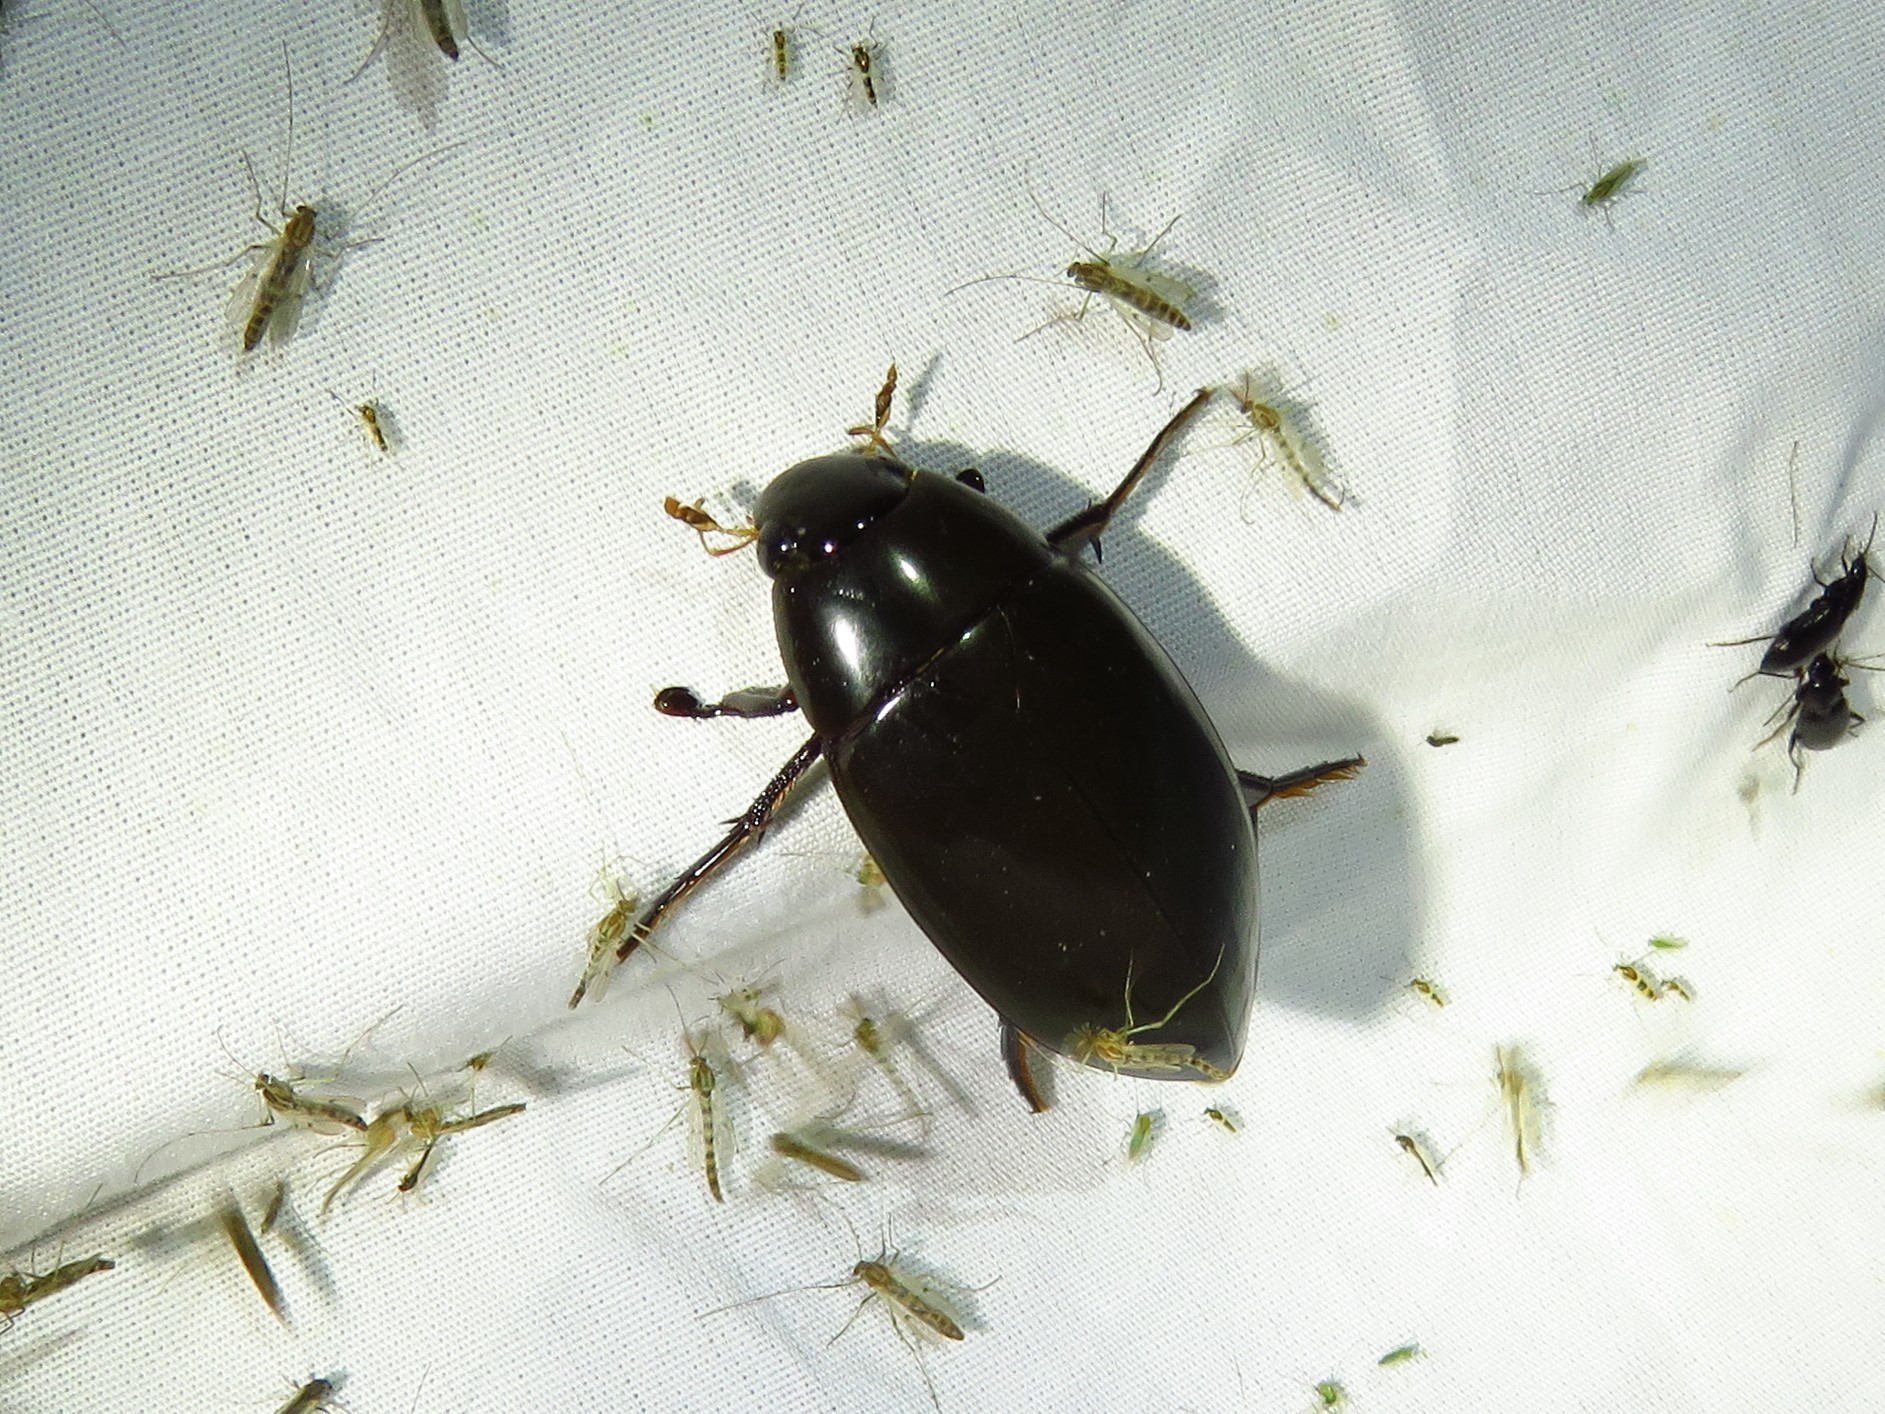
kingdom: Animalia
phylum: Arthropoda
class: Insecta
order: Coleoptera
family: Hydrophilidae
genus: Hydrophilus
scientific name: Hydrophilus triangularis
